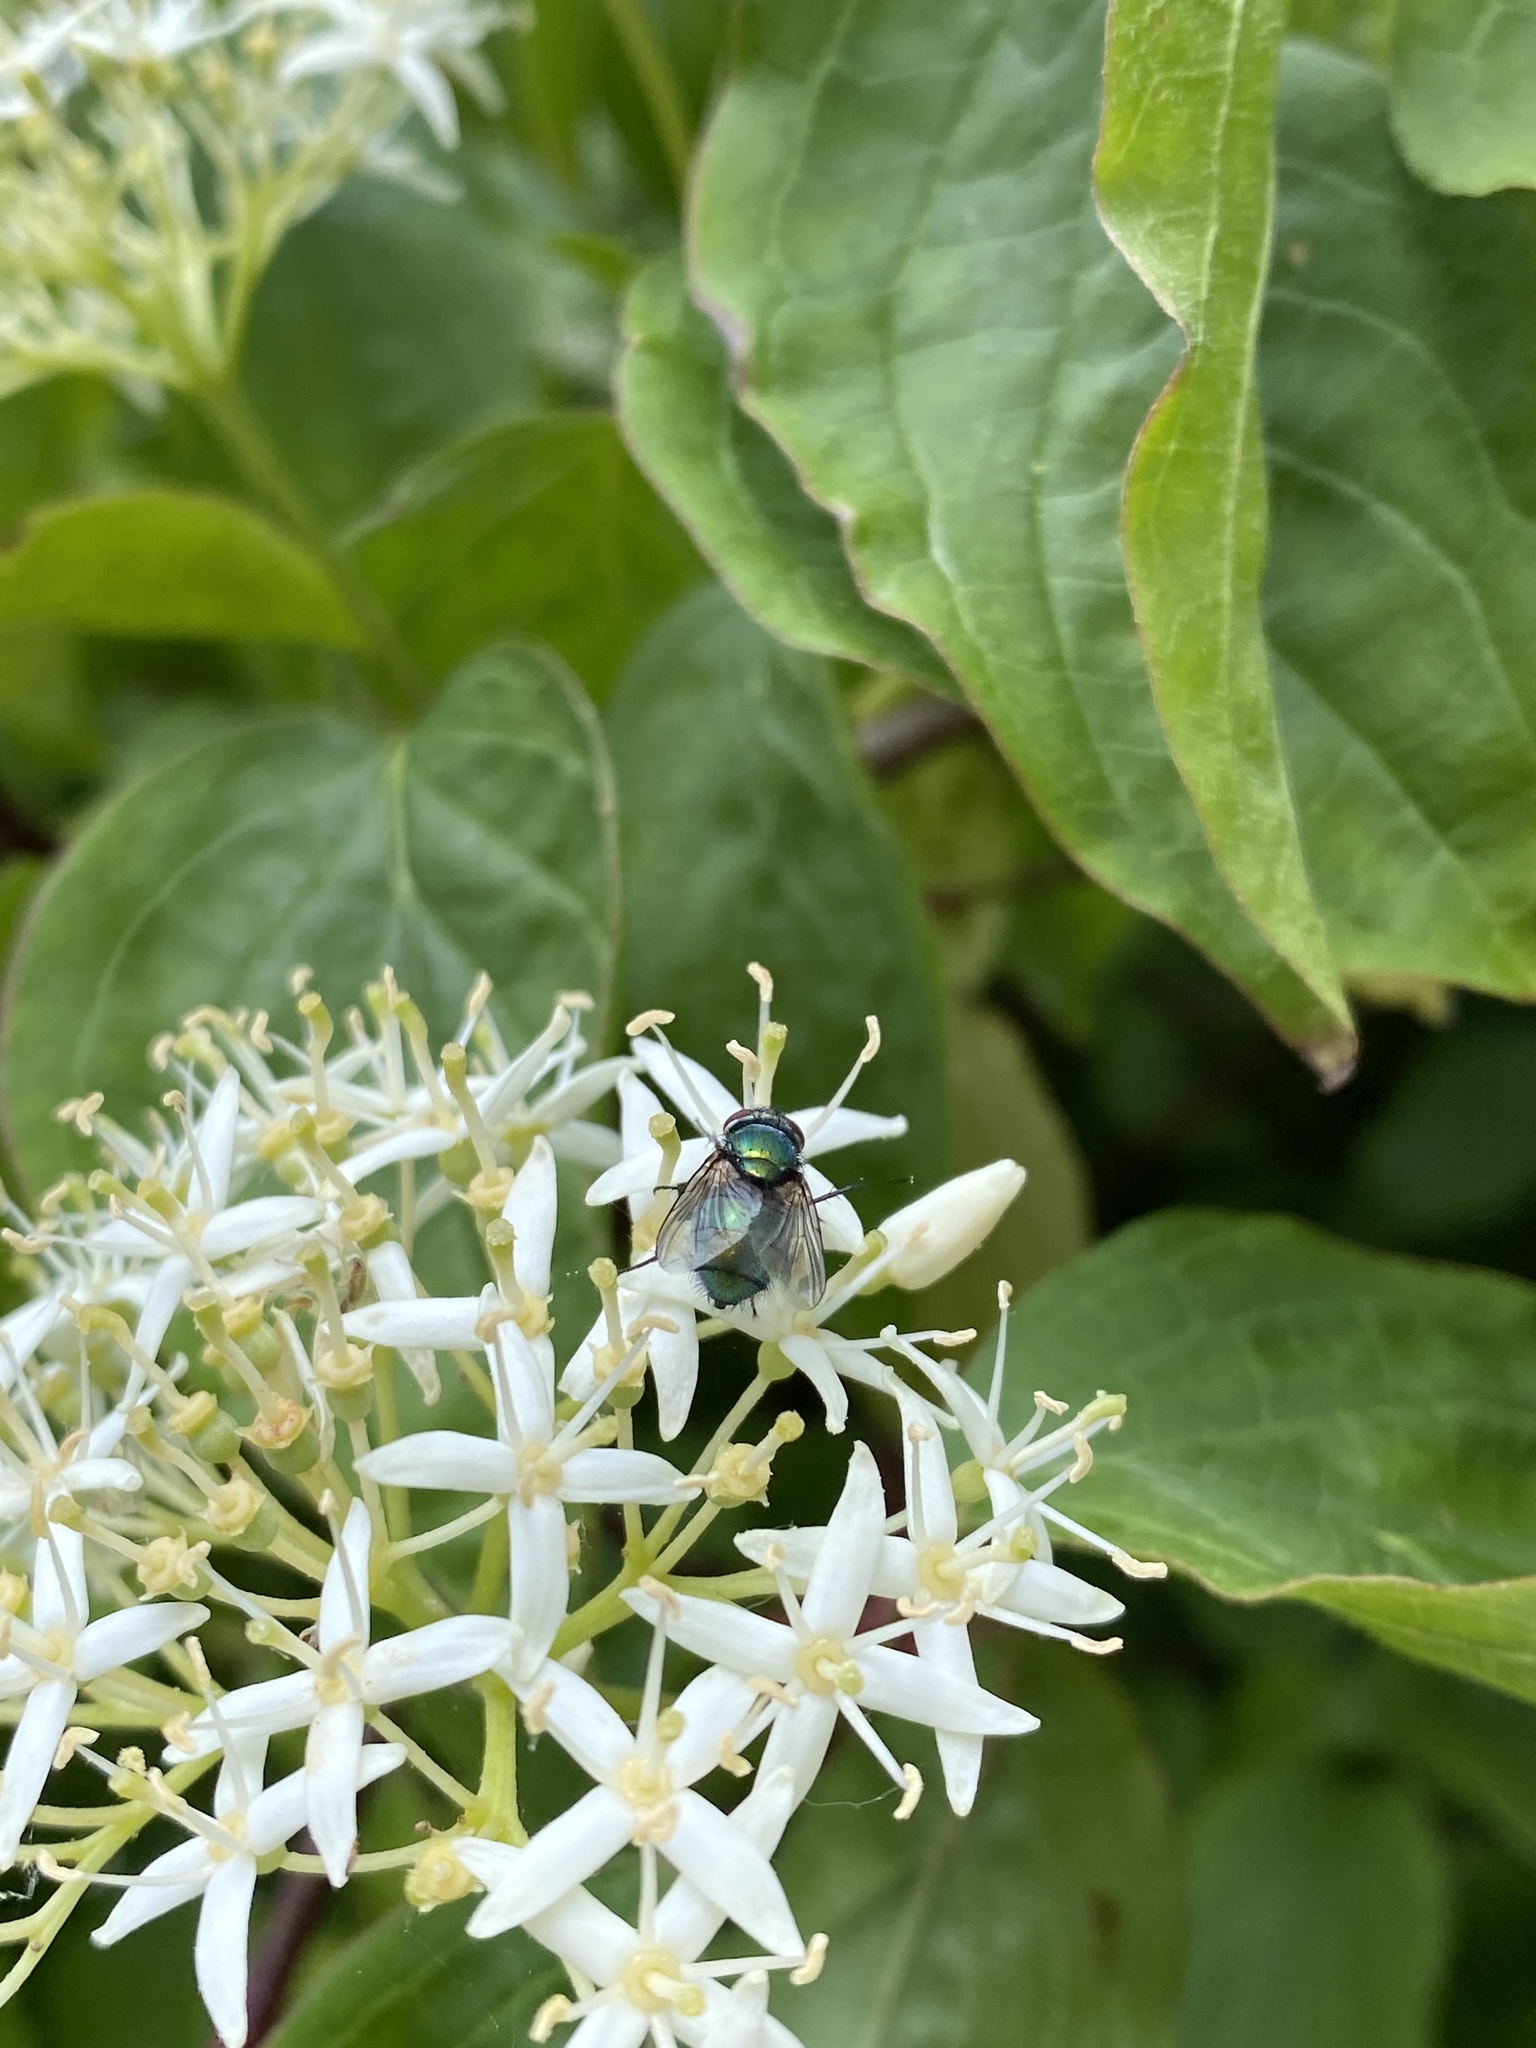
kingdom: Animalia
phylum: Arthropoda
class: Insecta
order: Diptera
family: Calliphoridae
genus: Lucilia
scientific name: Lucilia
